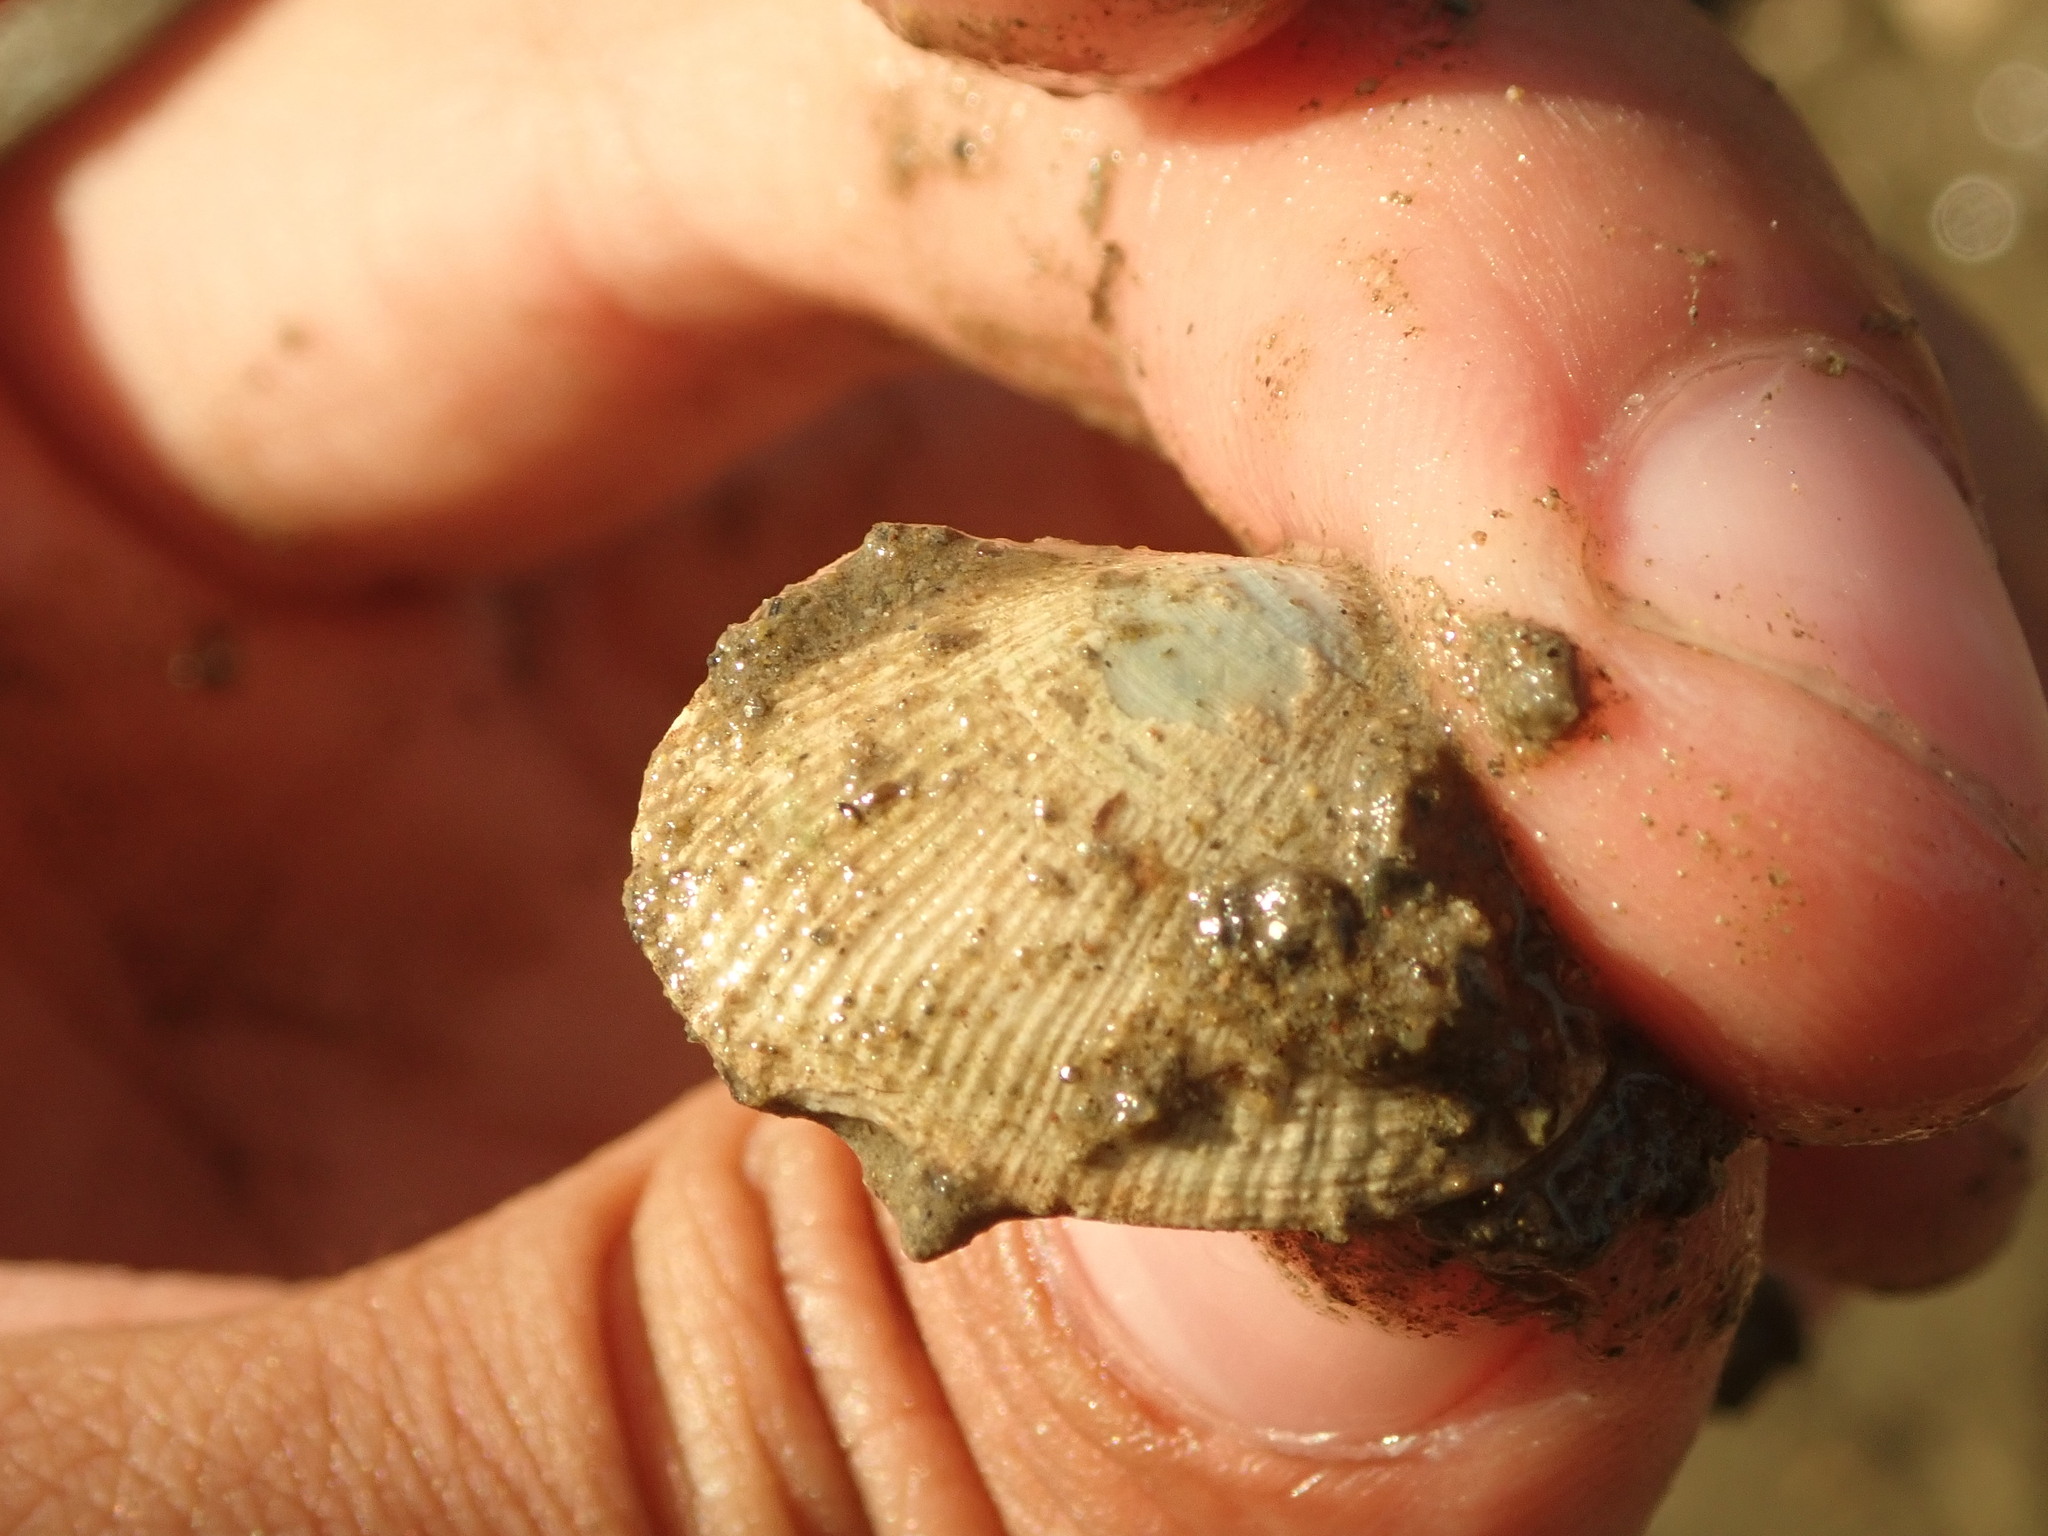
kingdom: Animalia
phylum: Mollusca
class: Bivalvia
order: Venerida
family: Veneridae
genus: Ruditapes
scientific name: Ruditapes philippinarum
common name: Manila clam
